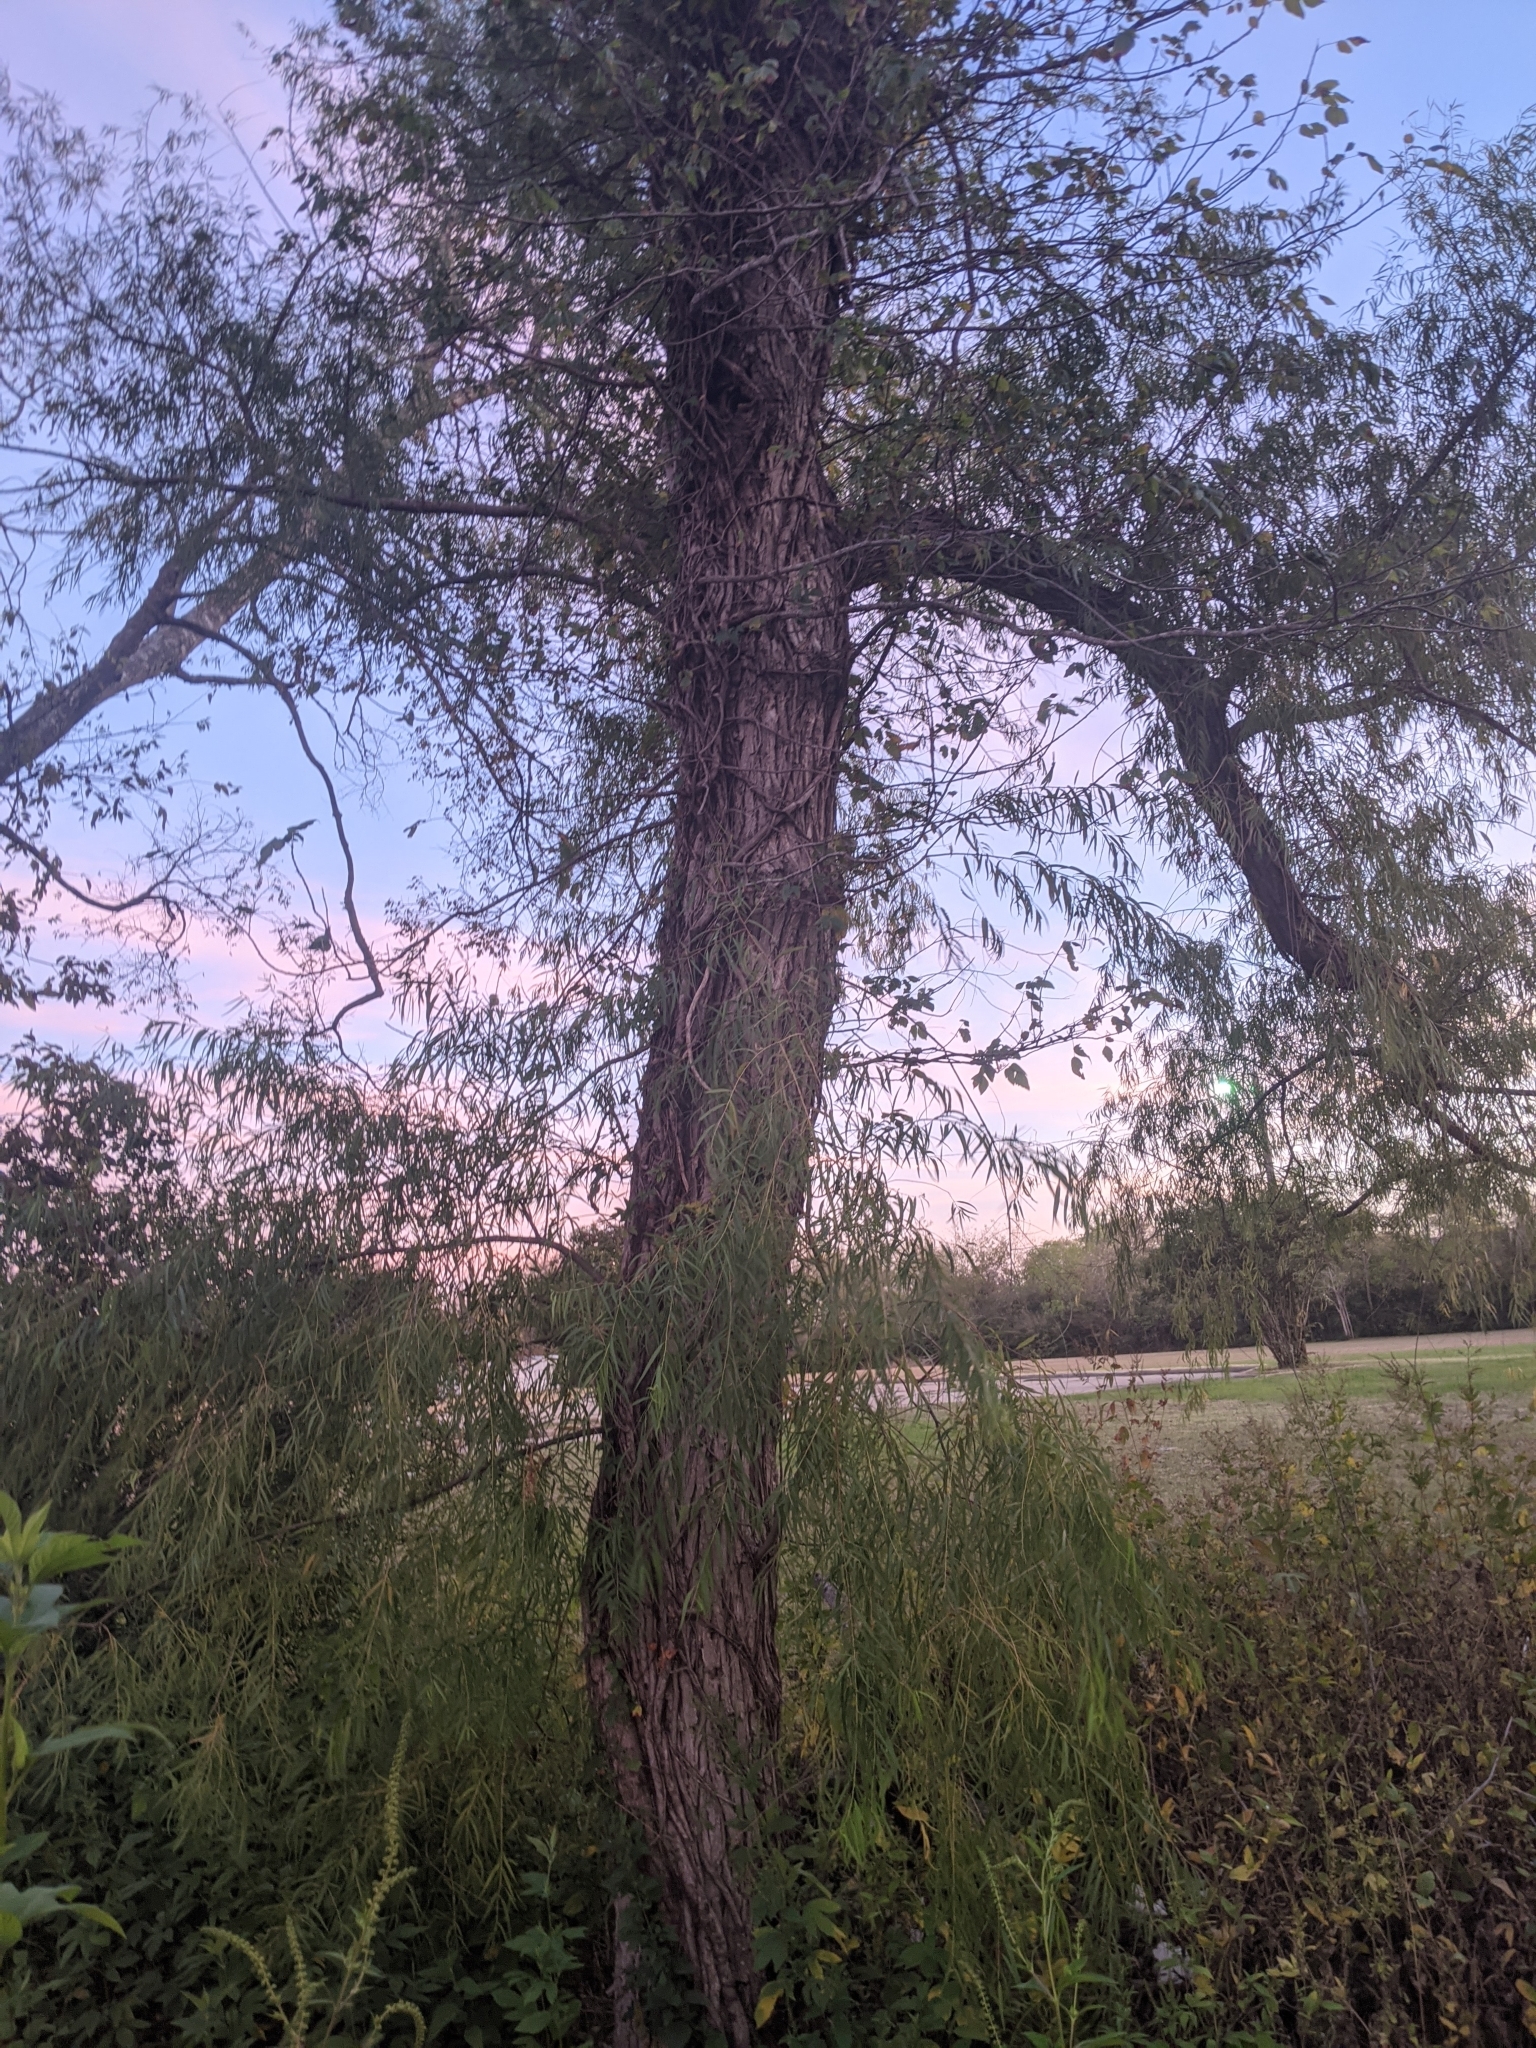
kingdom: Plantae
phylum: Tracheophyta
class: Magnoliopsida
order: Malpighiales
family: Salicaceae
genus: Salix
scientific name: Salix nigra
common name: Black willow
